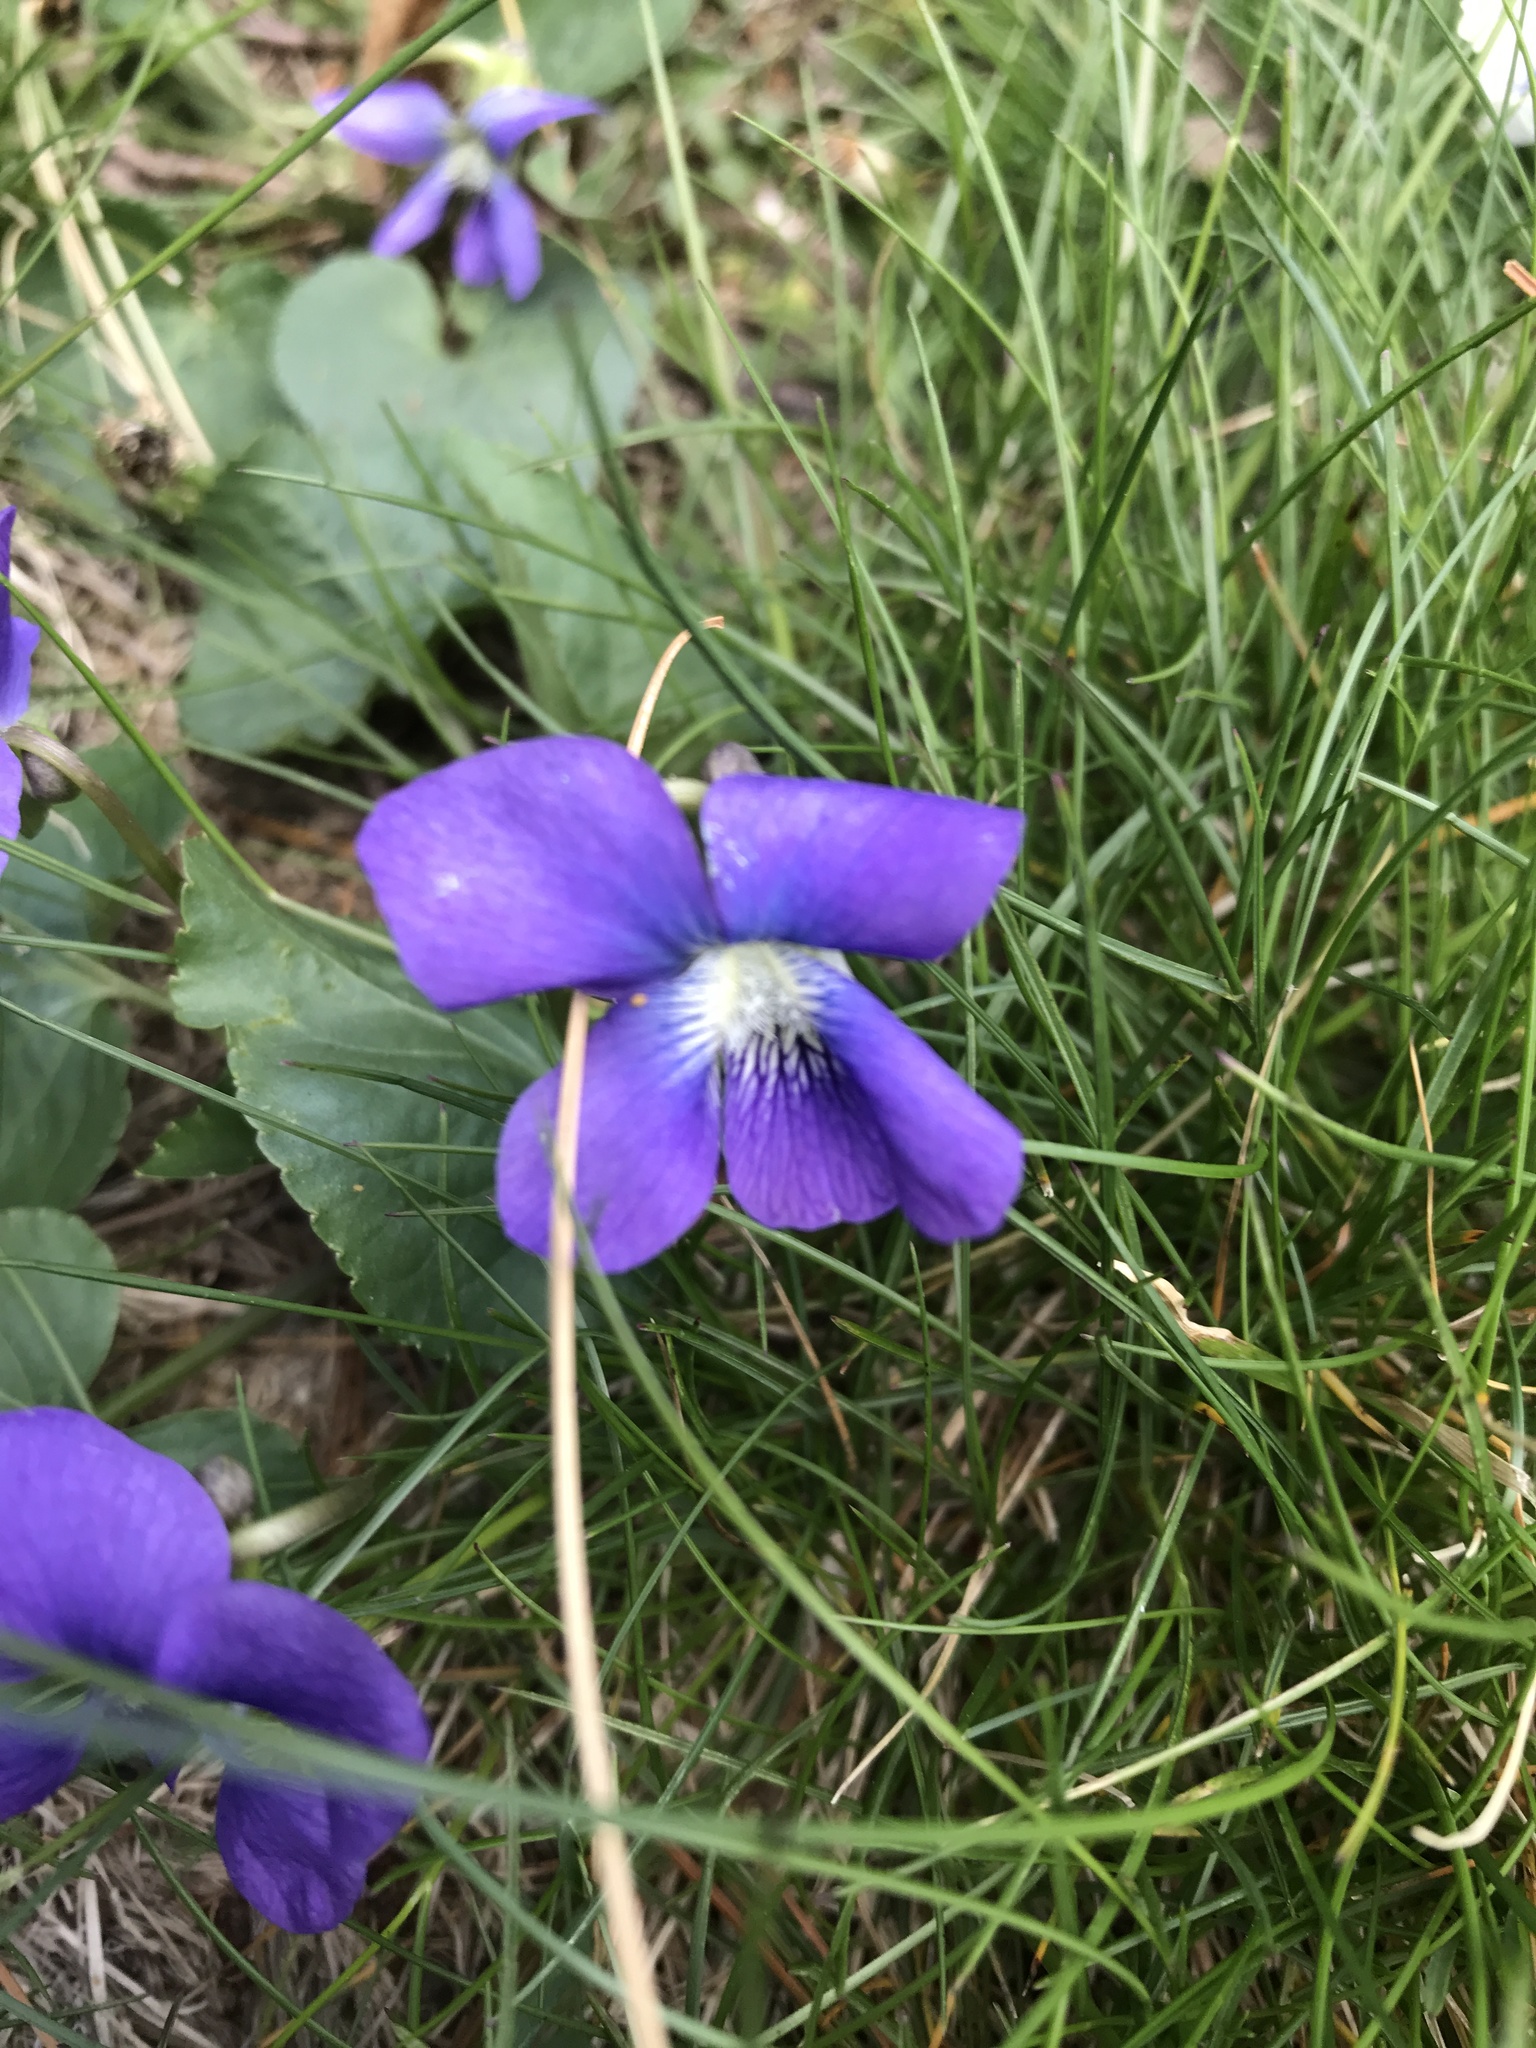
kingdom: Plantae
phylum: Tracheophyta
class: Magnoliopsida
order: Malpighiales
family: Violaceae
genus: Viola
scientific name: Viola sororia
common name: Dooryard violet
